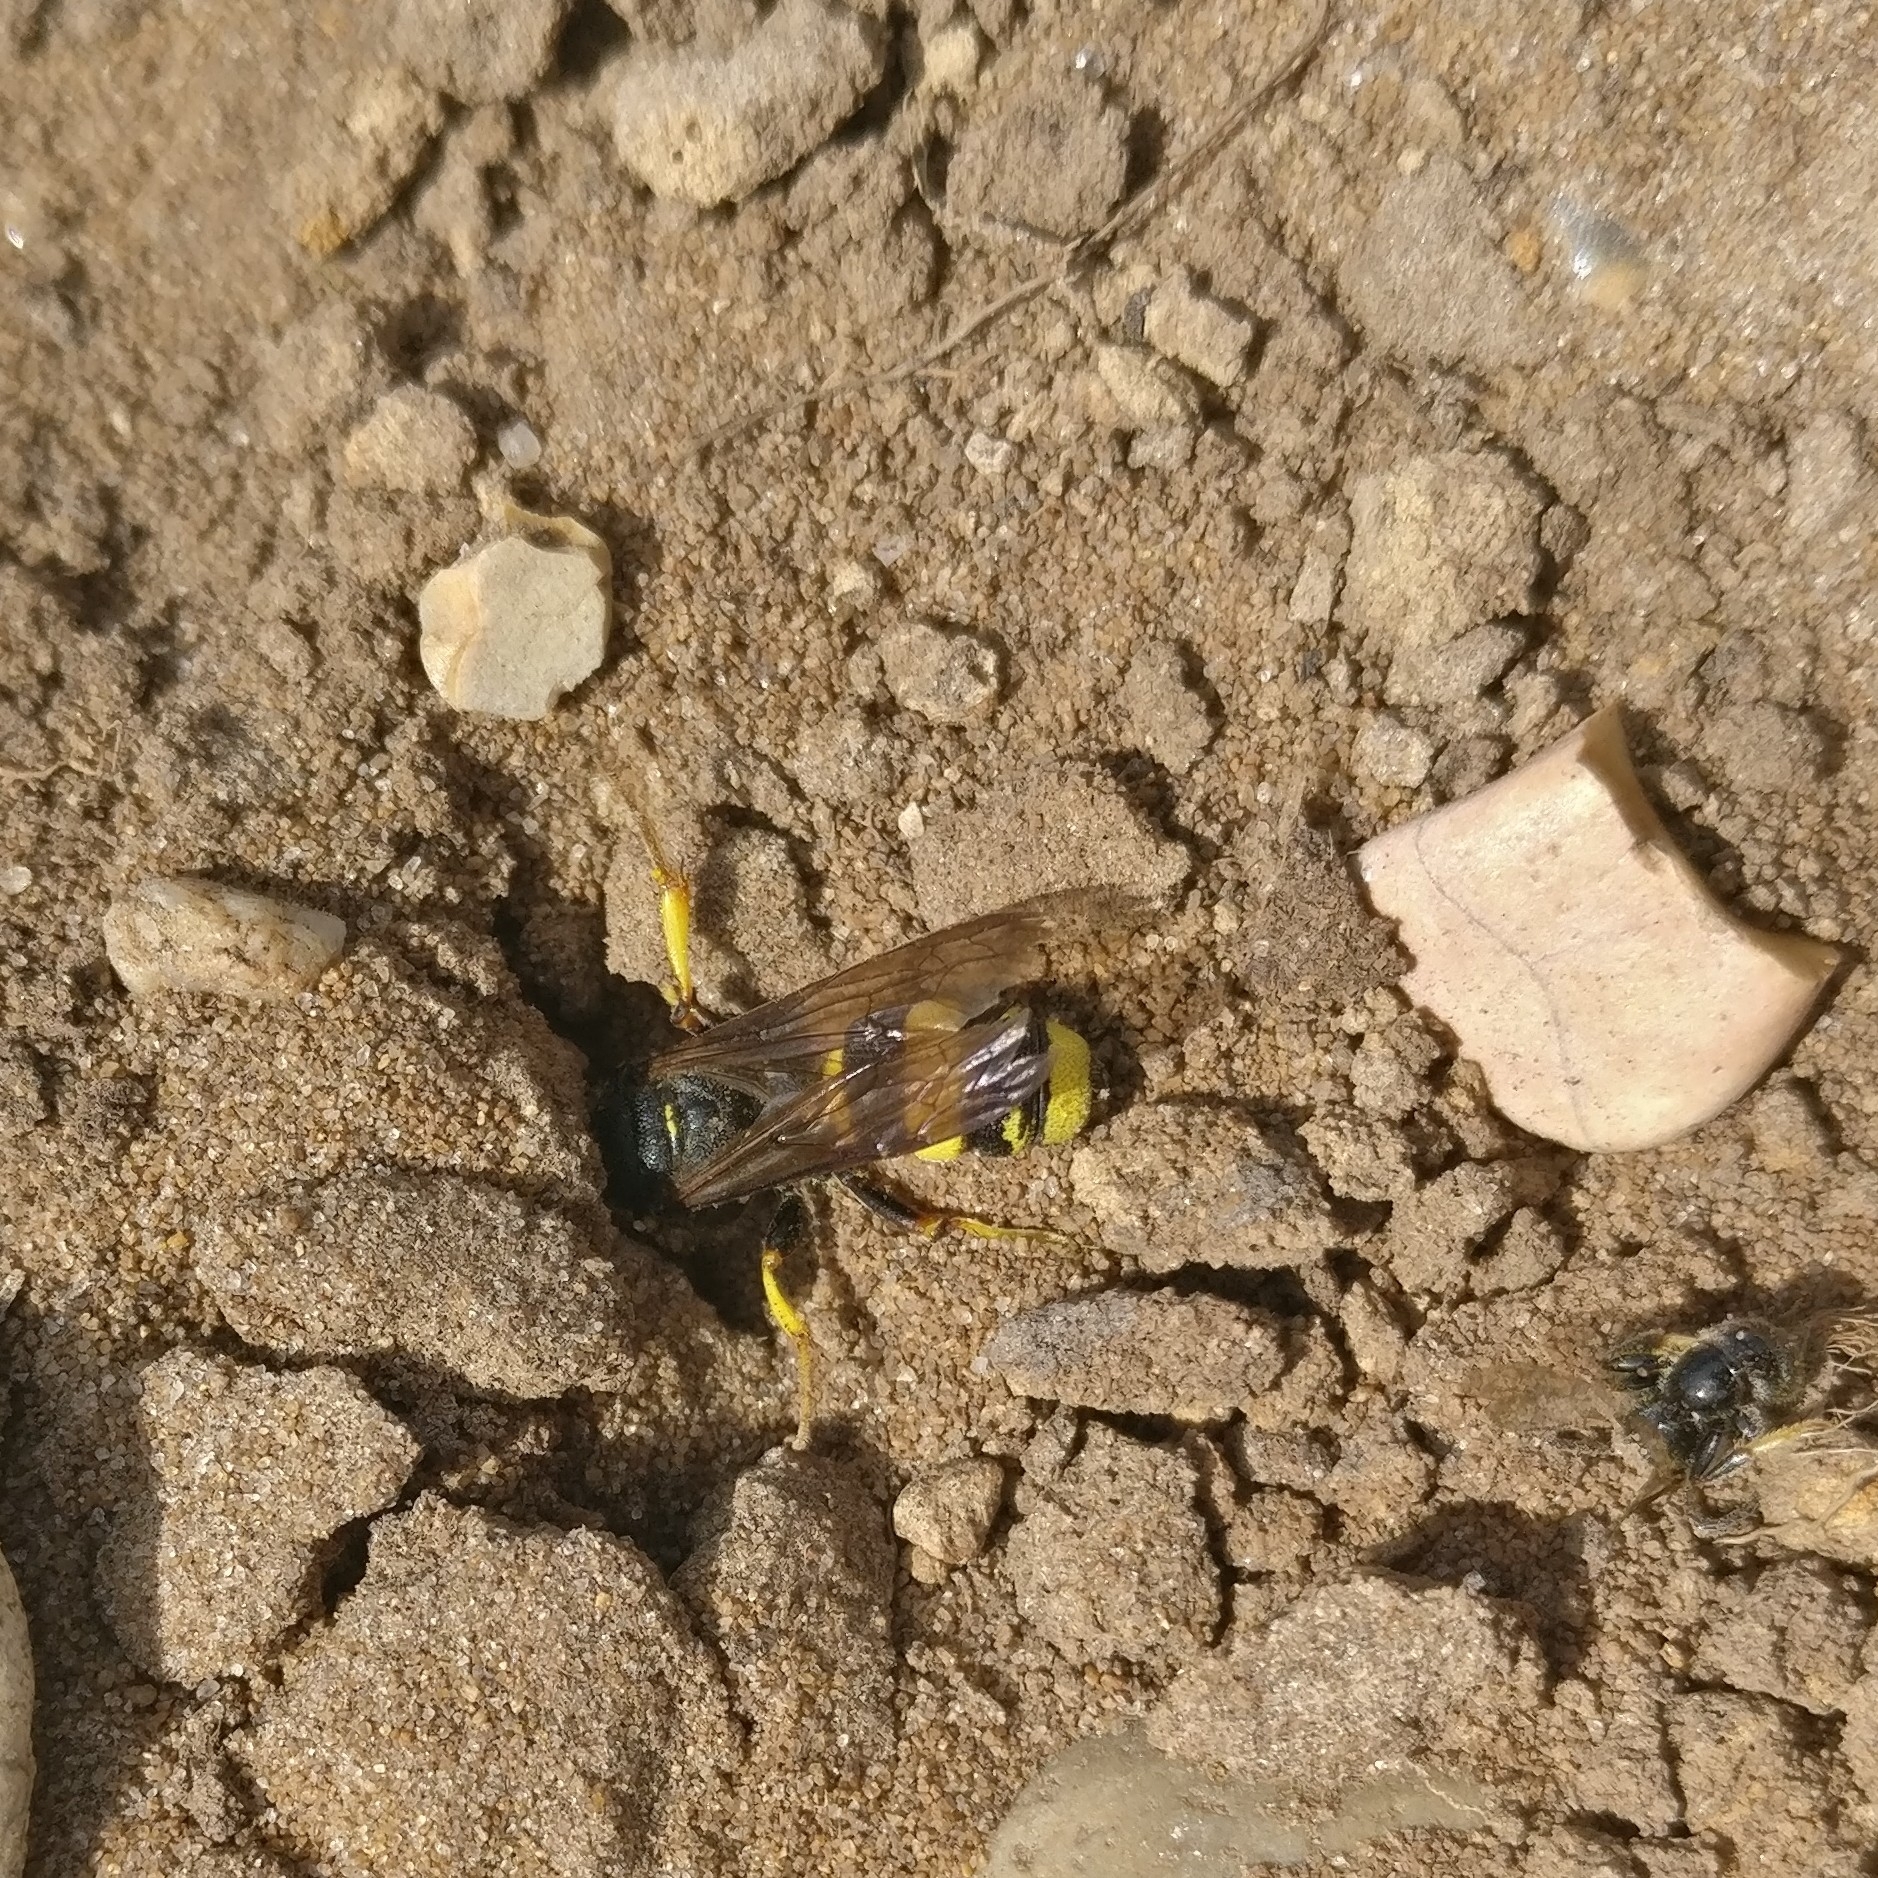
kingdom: Animalia
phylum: Arthropoda
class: Insecta
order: Hymenoptera
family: Crabronidae
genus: Cerceris
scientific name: Cerceris rybyensis
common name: Ornate tailed digger wasp
